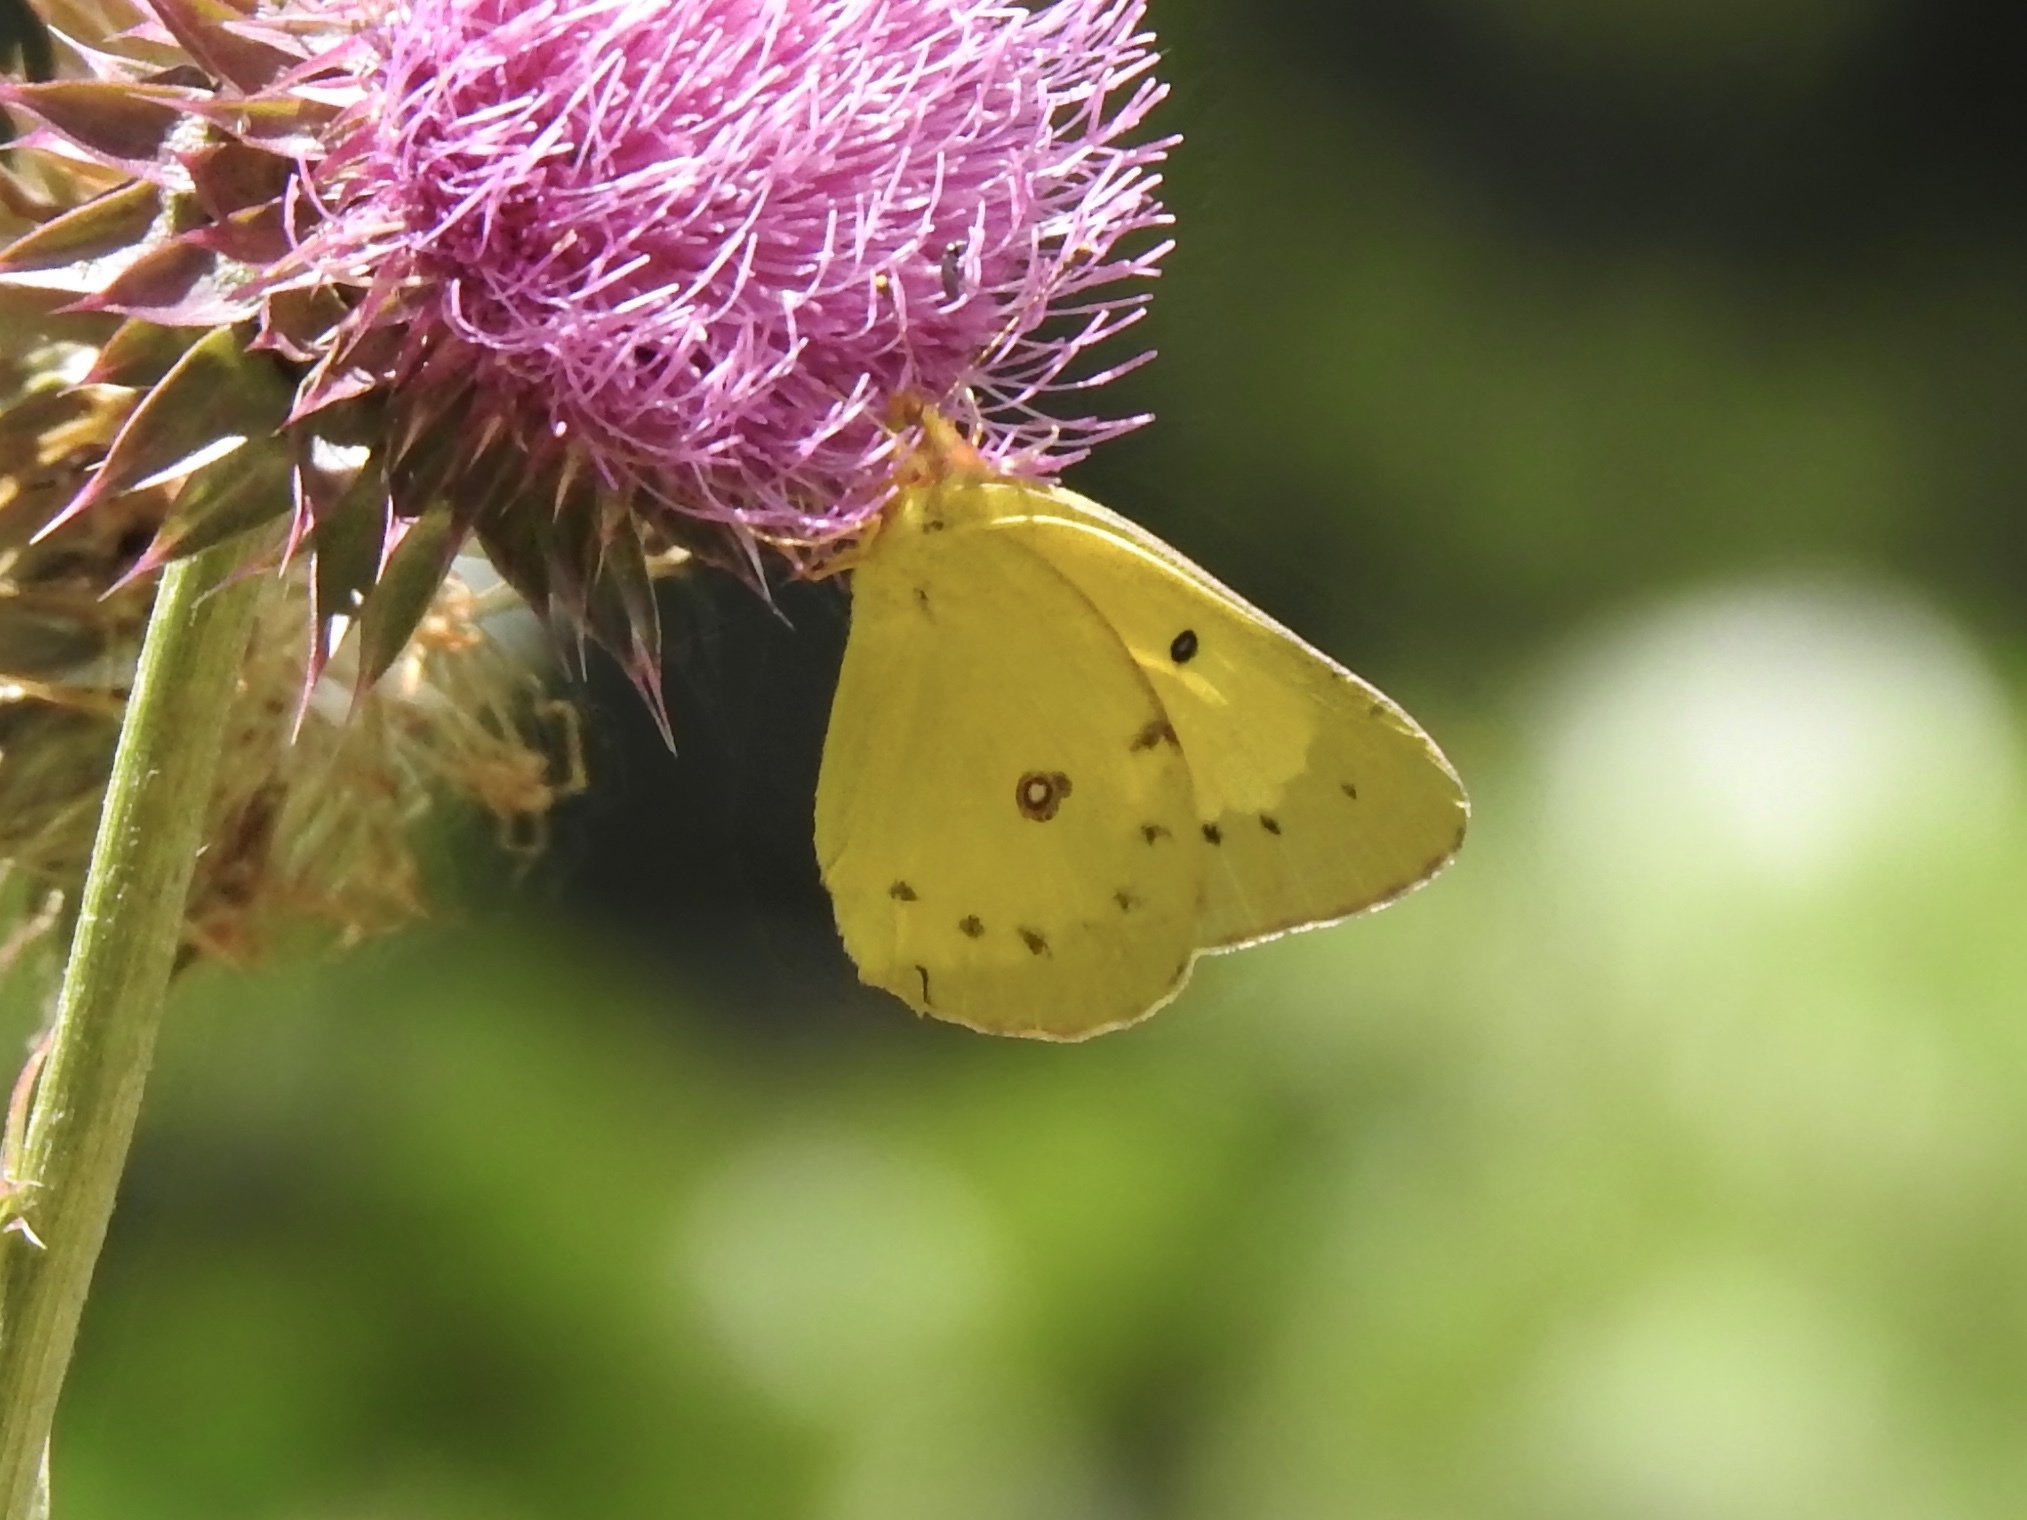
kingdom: Animalia
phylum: Arthropoda
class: Insecta
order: Lepidoptera
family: Pieridae
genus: Colias
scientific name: Colias eurytheme
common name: Alfalfa butterfly
